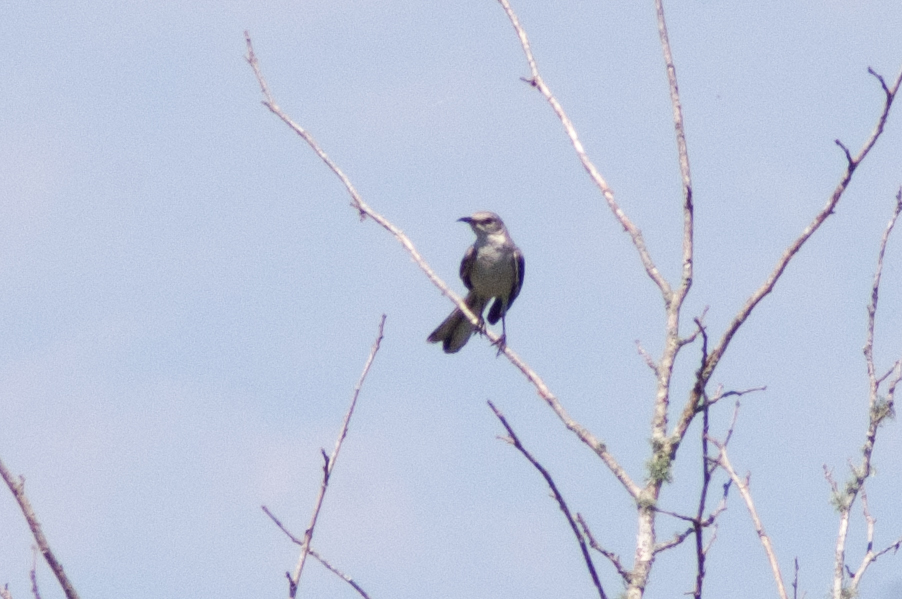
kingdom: Animalia
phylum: Chordata
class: Aves
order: Passeriformes
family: Mimidae
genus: Mimus
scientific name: Mimus polyglottos
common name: Northern mockingbird
